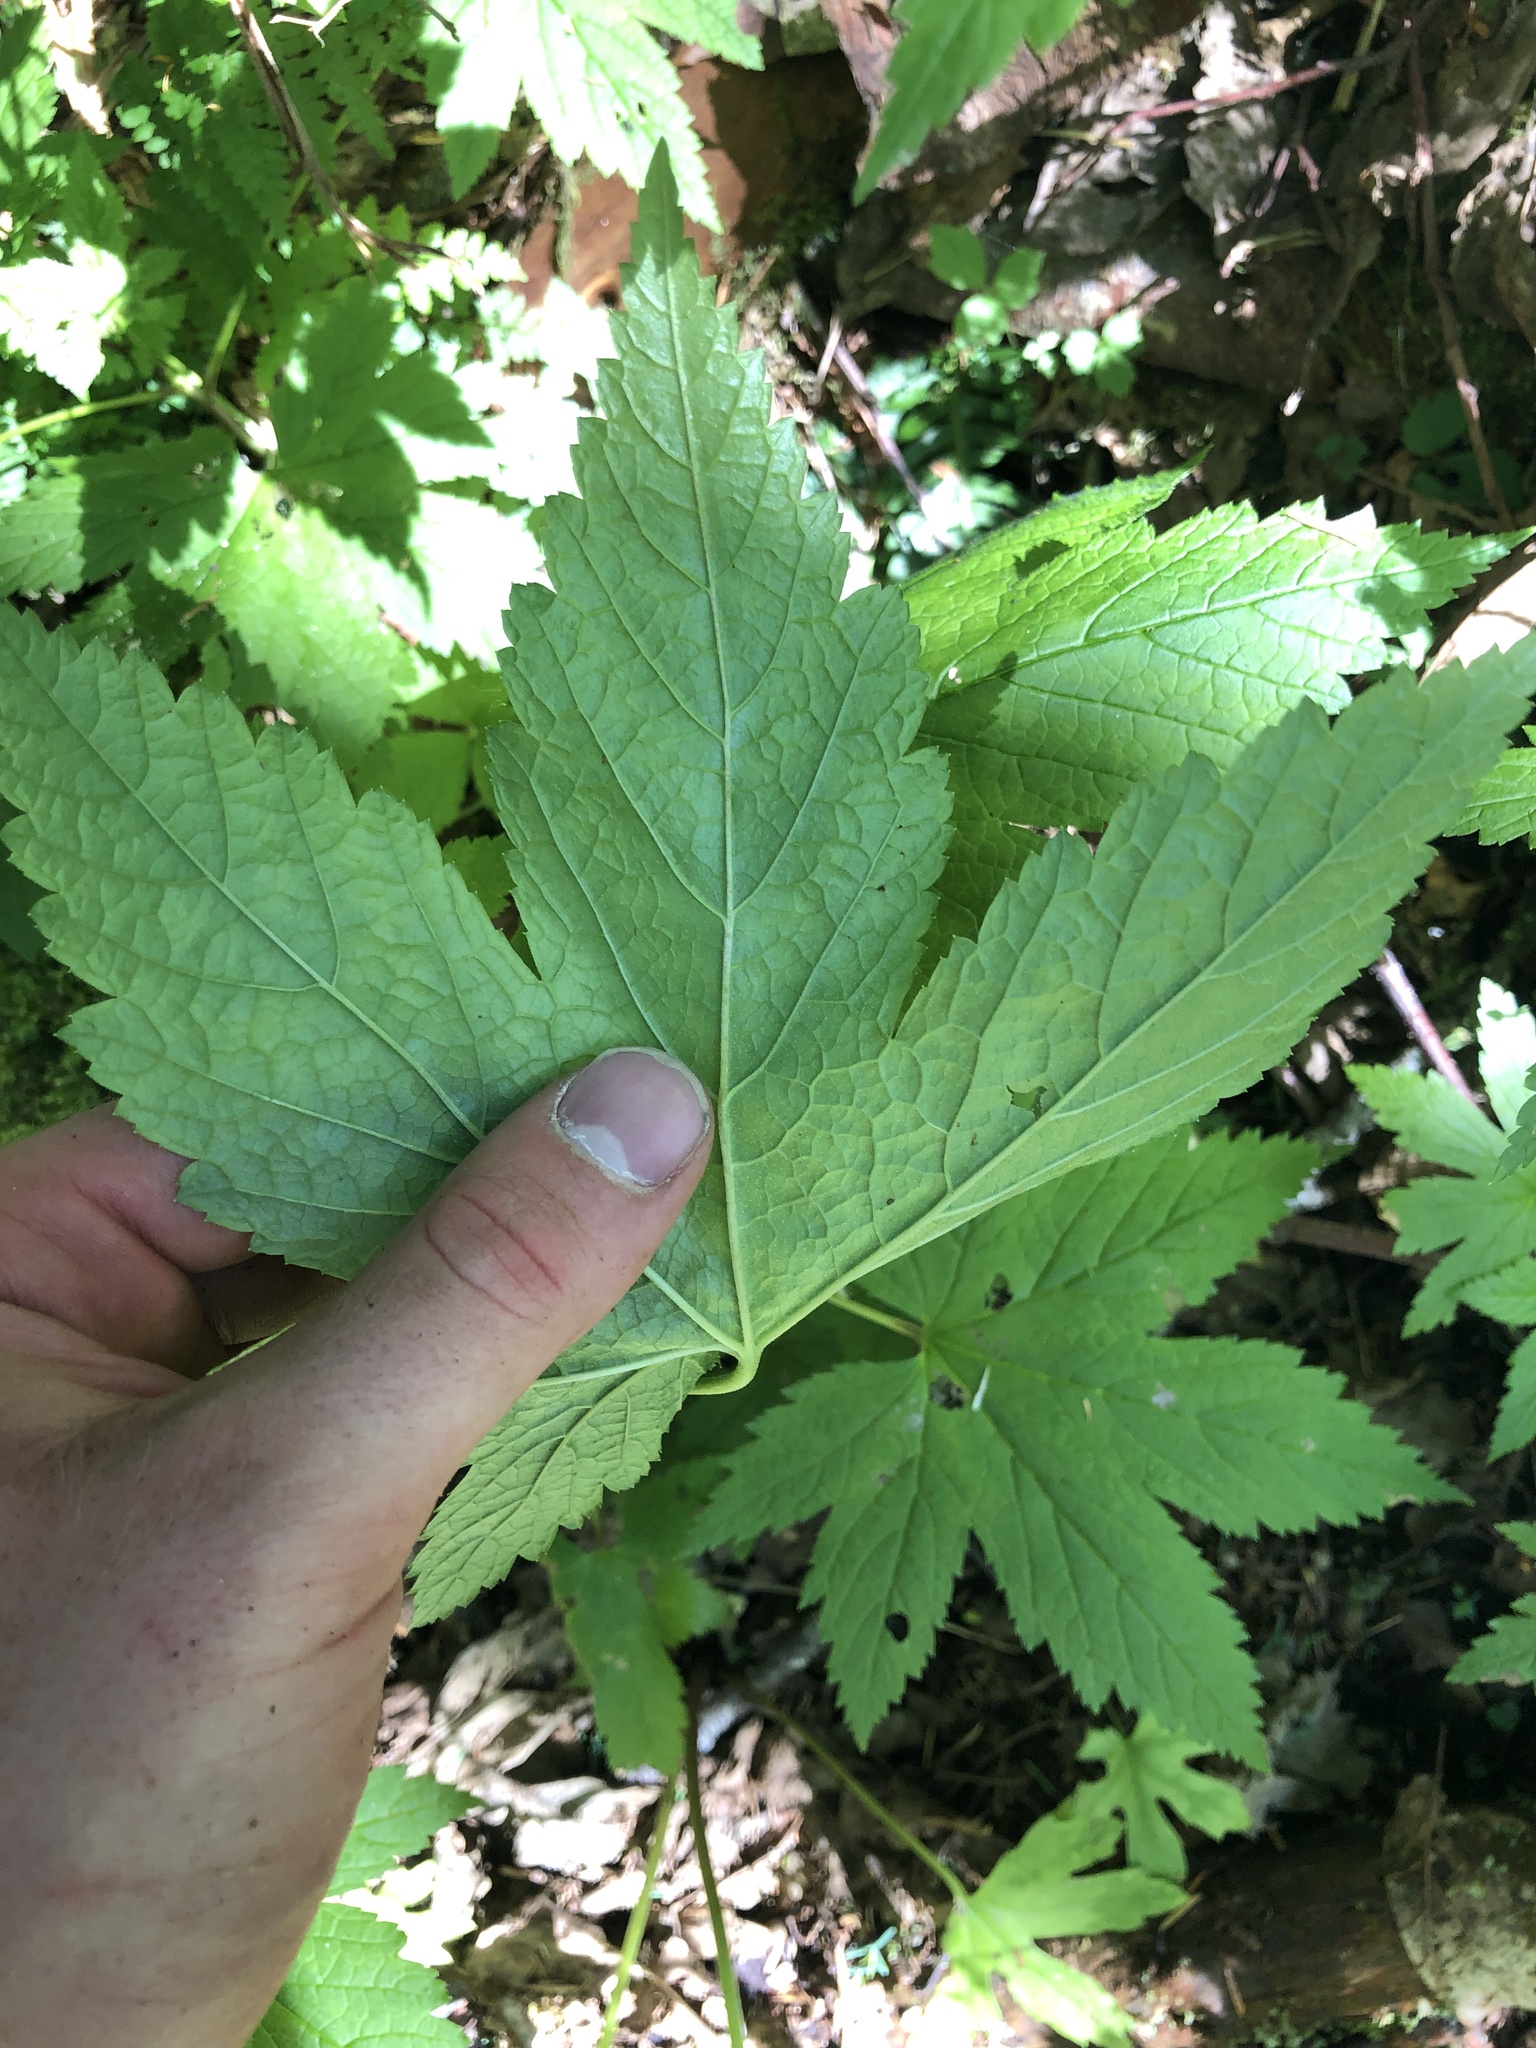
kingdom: Plantae
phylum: Tracheophyta
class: Magnoliopsida
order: Saxifragales
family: Grossulariaceae
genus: Ribes
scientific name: Ribes bracteosum
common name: California black currant
